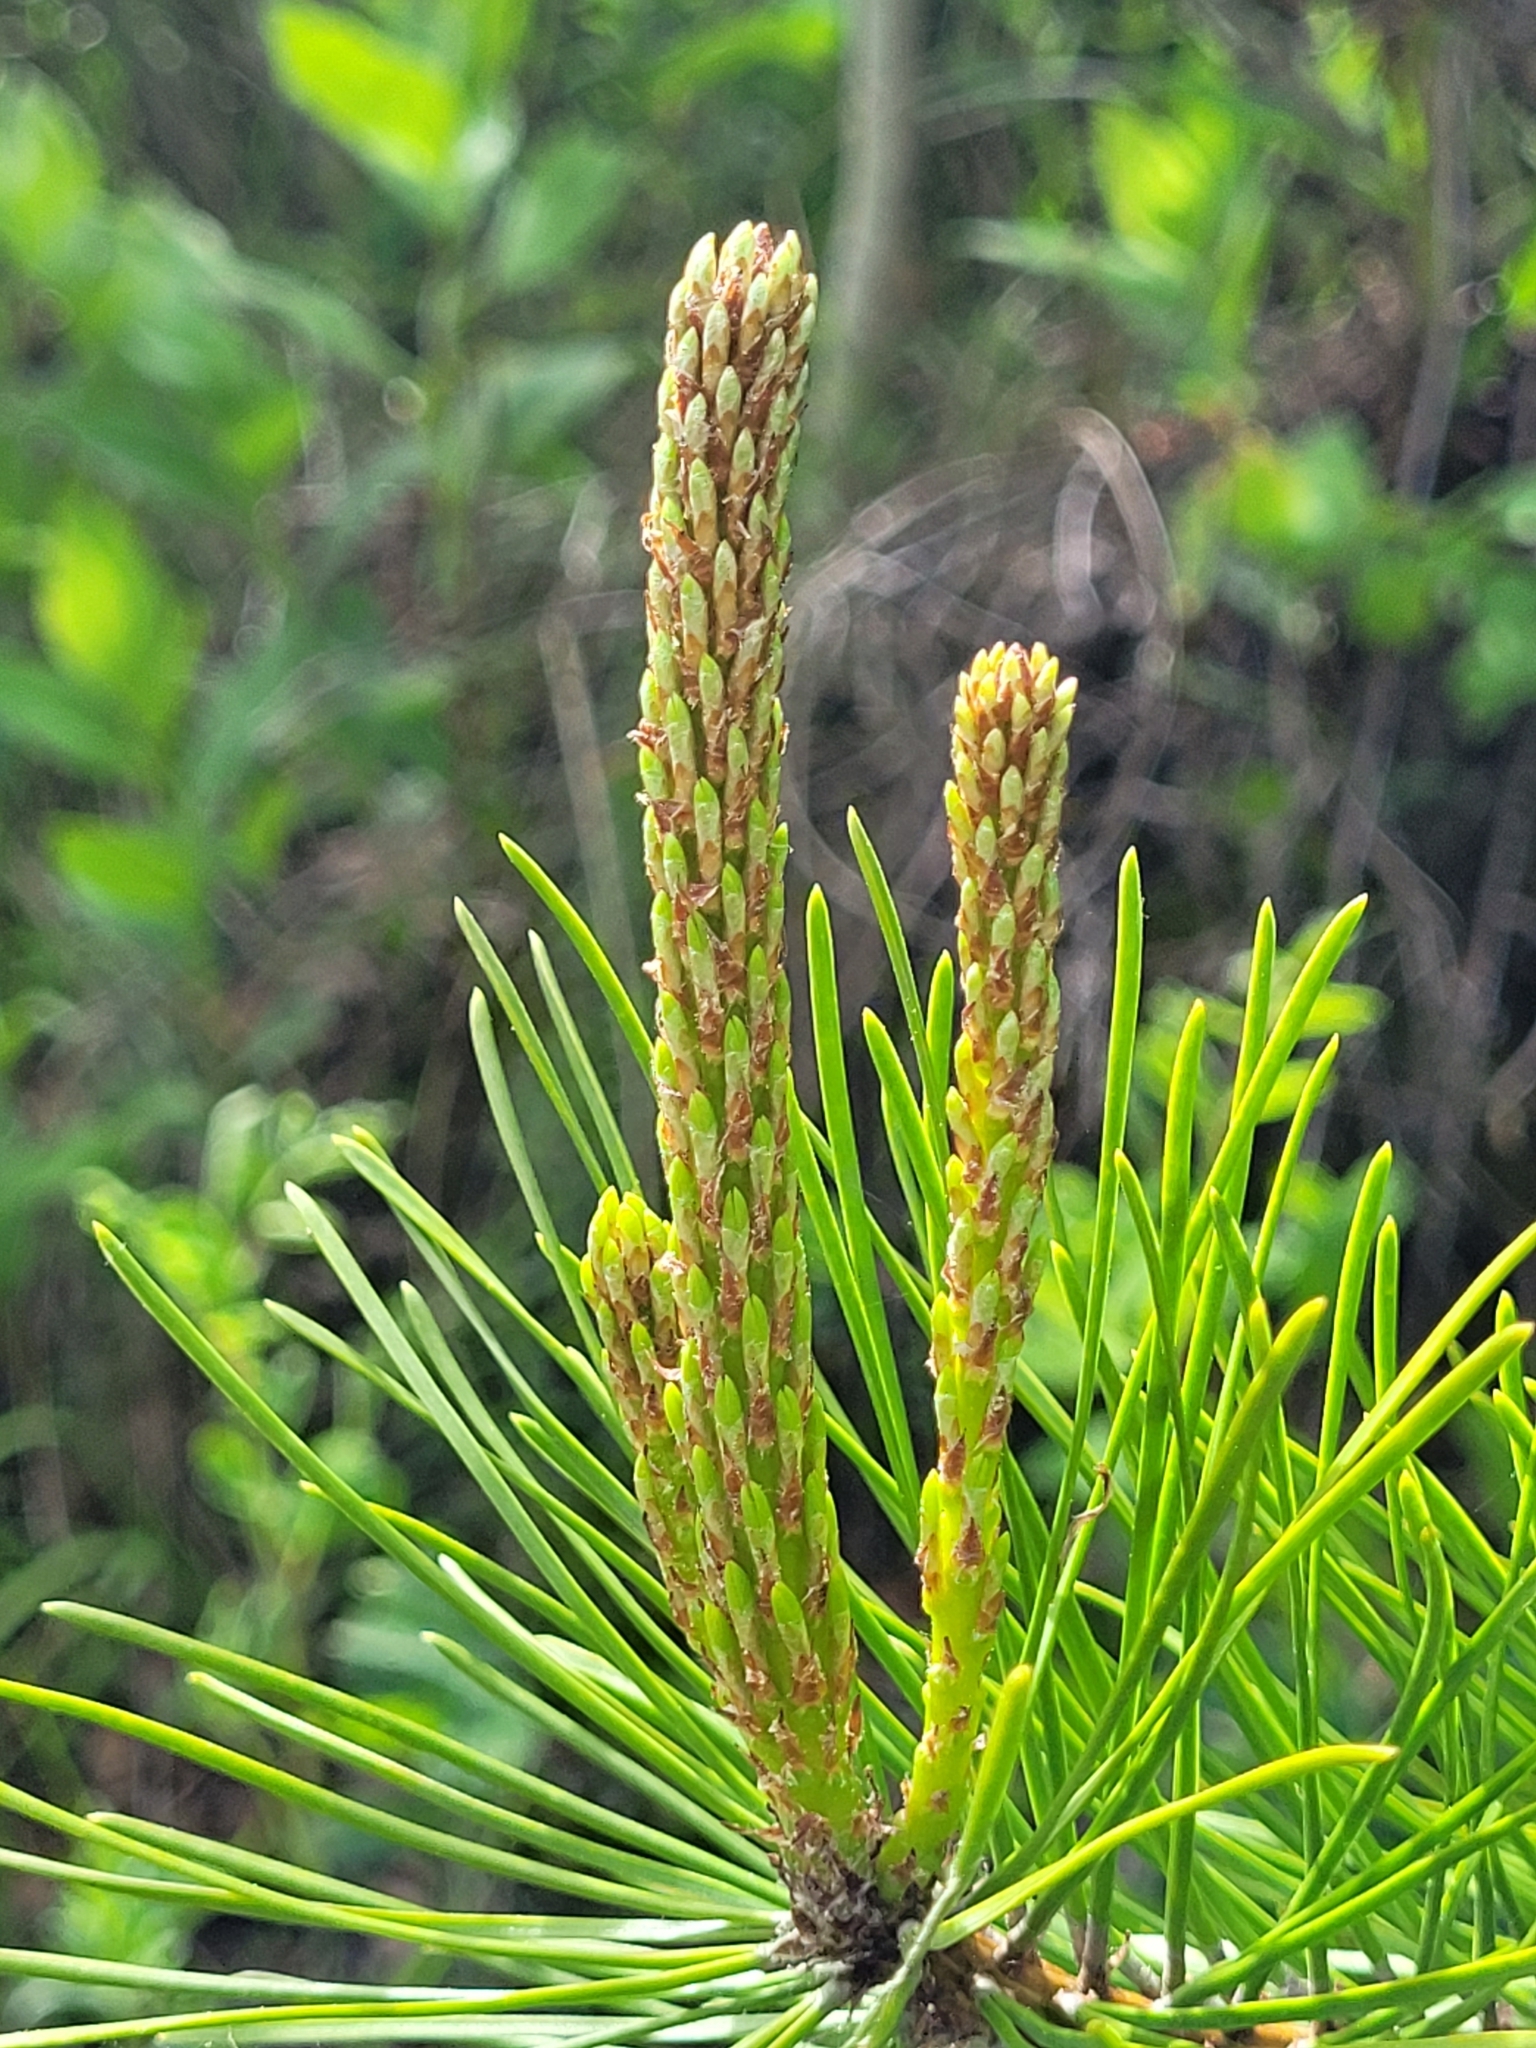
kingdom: Plantae
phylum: Tracheophyta
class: Pinopsida
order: Pinales
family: Pinaceae
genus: Pinus
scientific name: Pinus contorta
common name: Lodgepole pine
